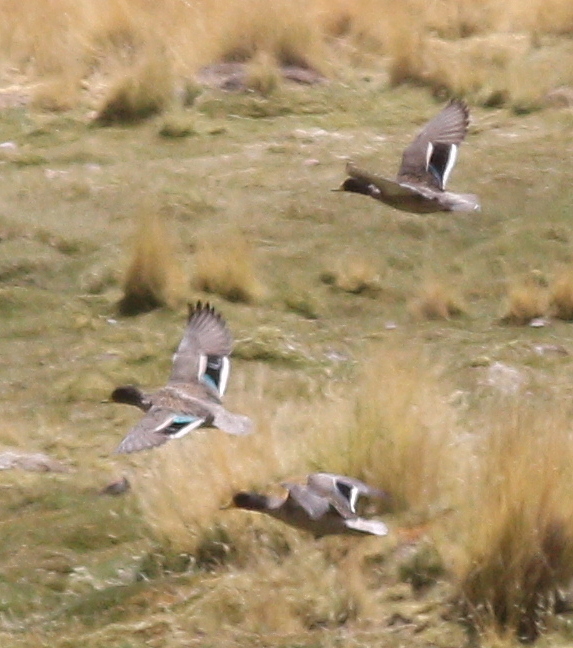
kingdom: Animalia
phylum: Chordata
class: Aves
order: Anseriformes
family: Anatidae
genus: Anas
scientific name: Anas flavirostris
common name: Yellow-billed teal
